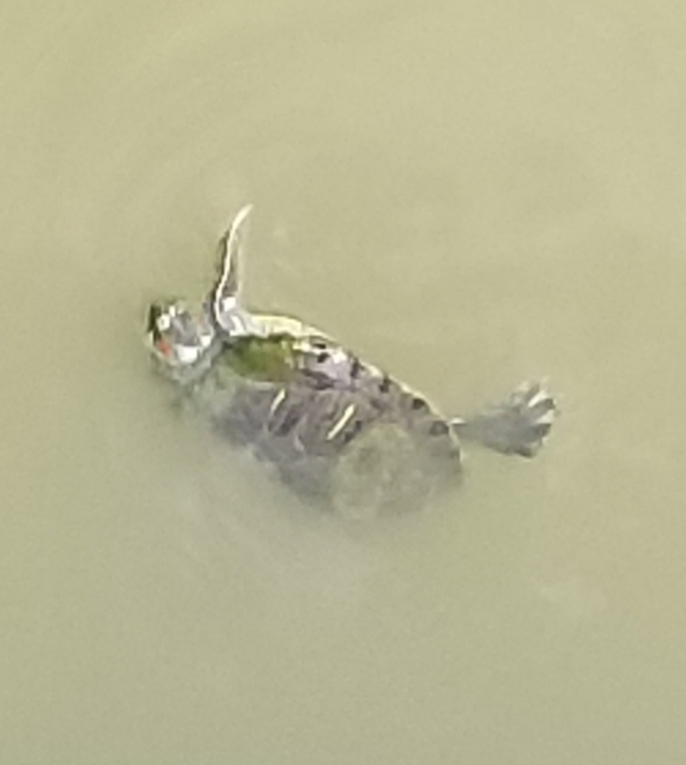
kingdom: Animalia
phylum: Chordata
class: Testudines
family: Emydidae
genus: Trachemys
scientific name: Trachemys scripta
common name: Slider
